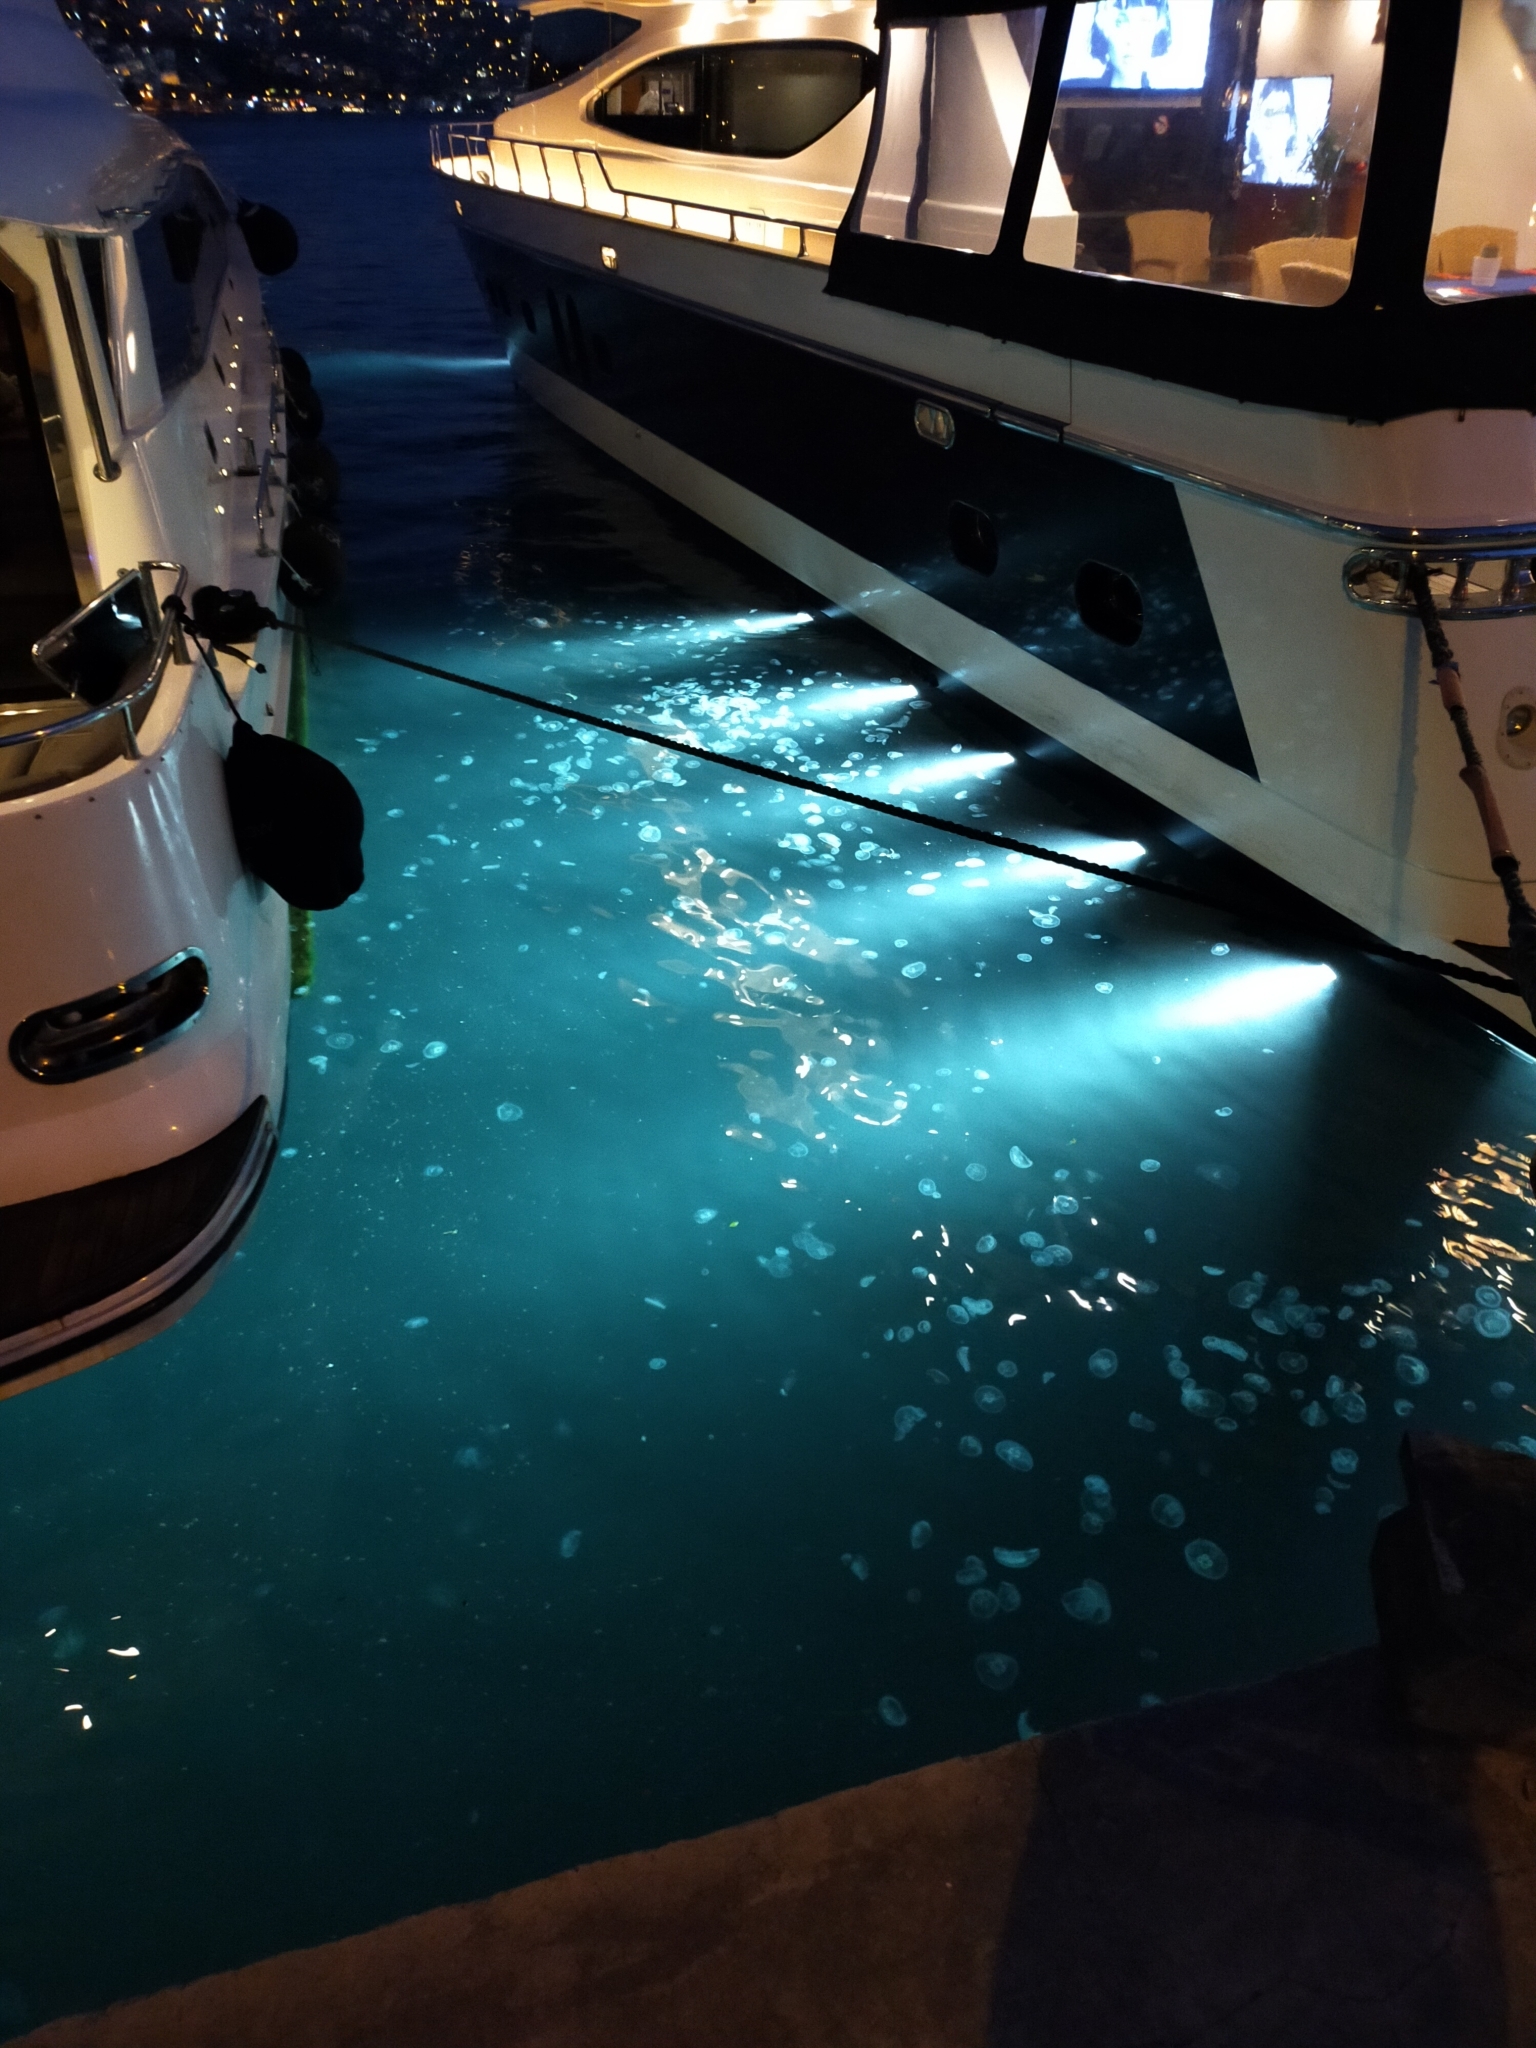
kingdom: Animalia
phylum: Cnidaria
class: Scyphozoa
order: Semaeostomeae
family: Ulmaridae
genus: Aurelia
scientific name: Aurelia aurita
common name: Moon jellyfish
